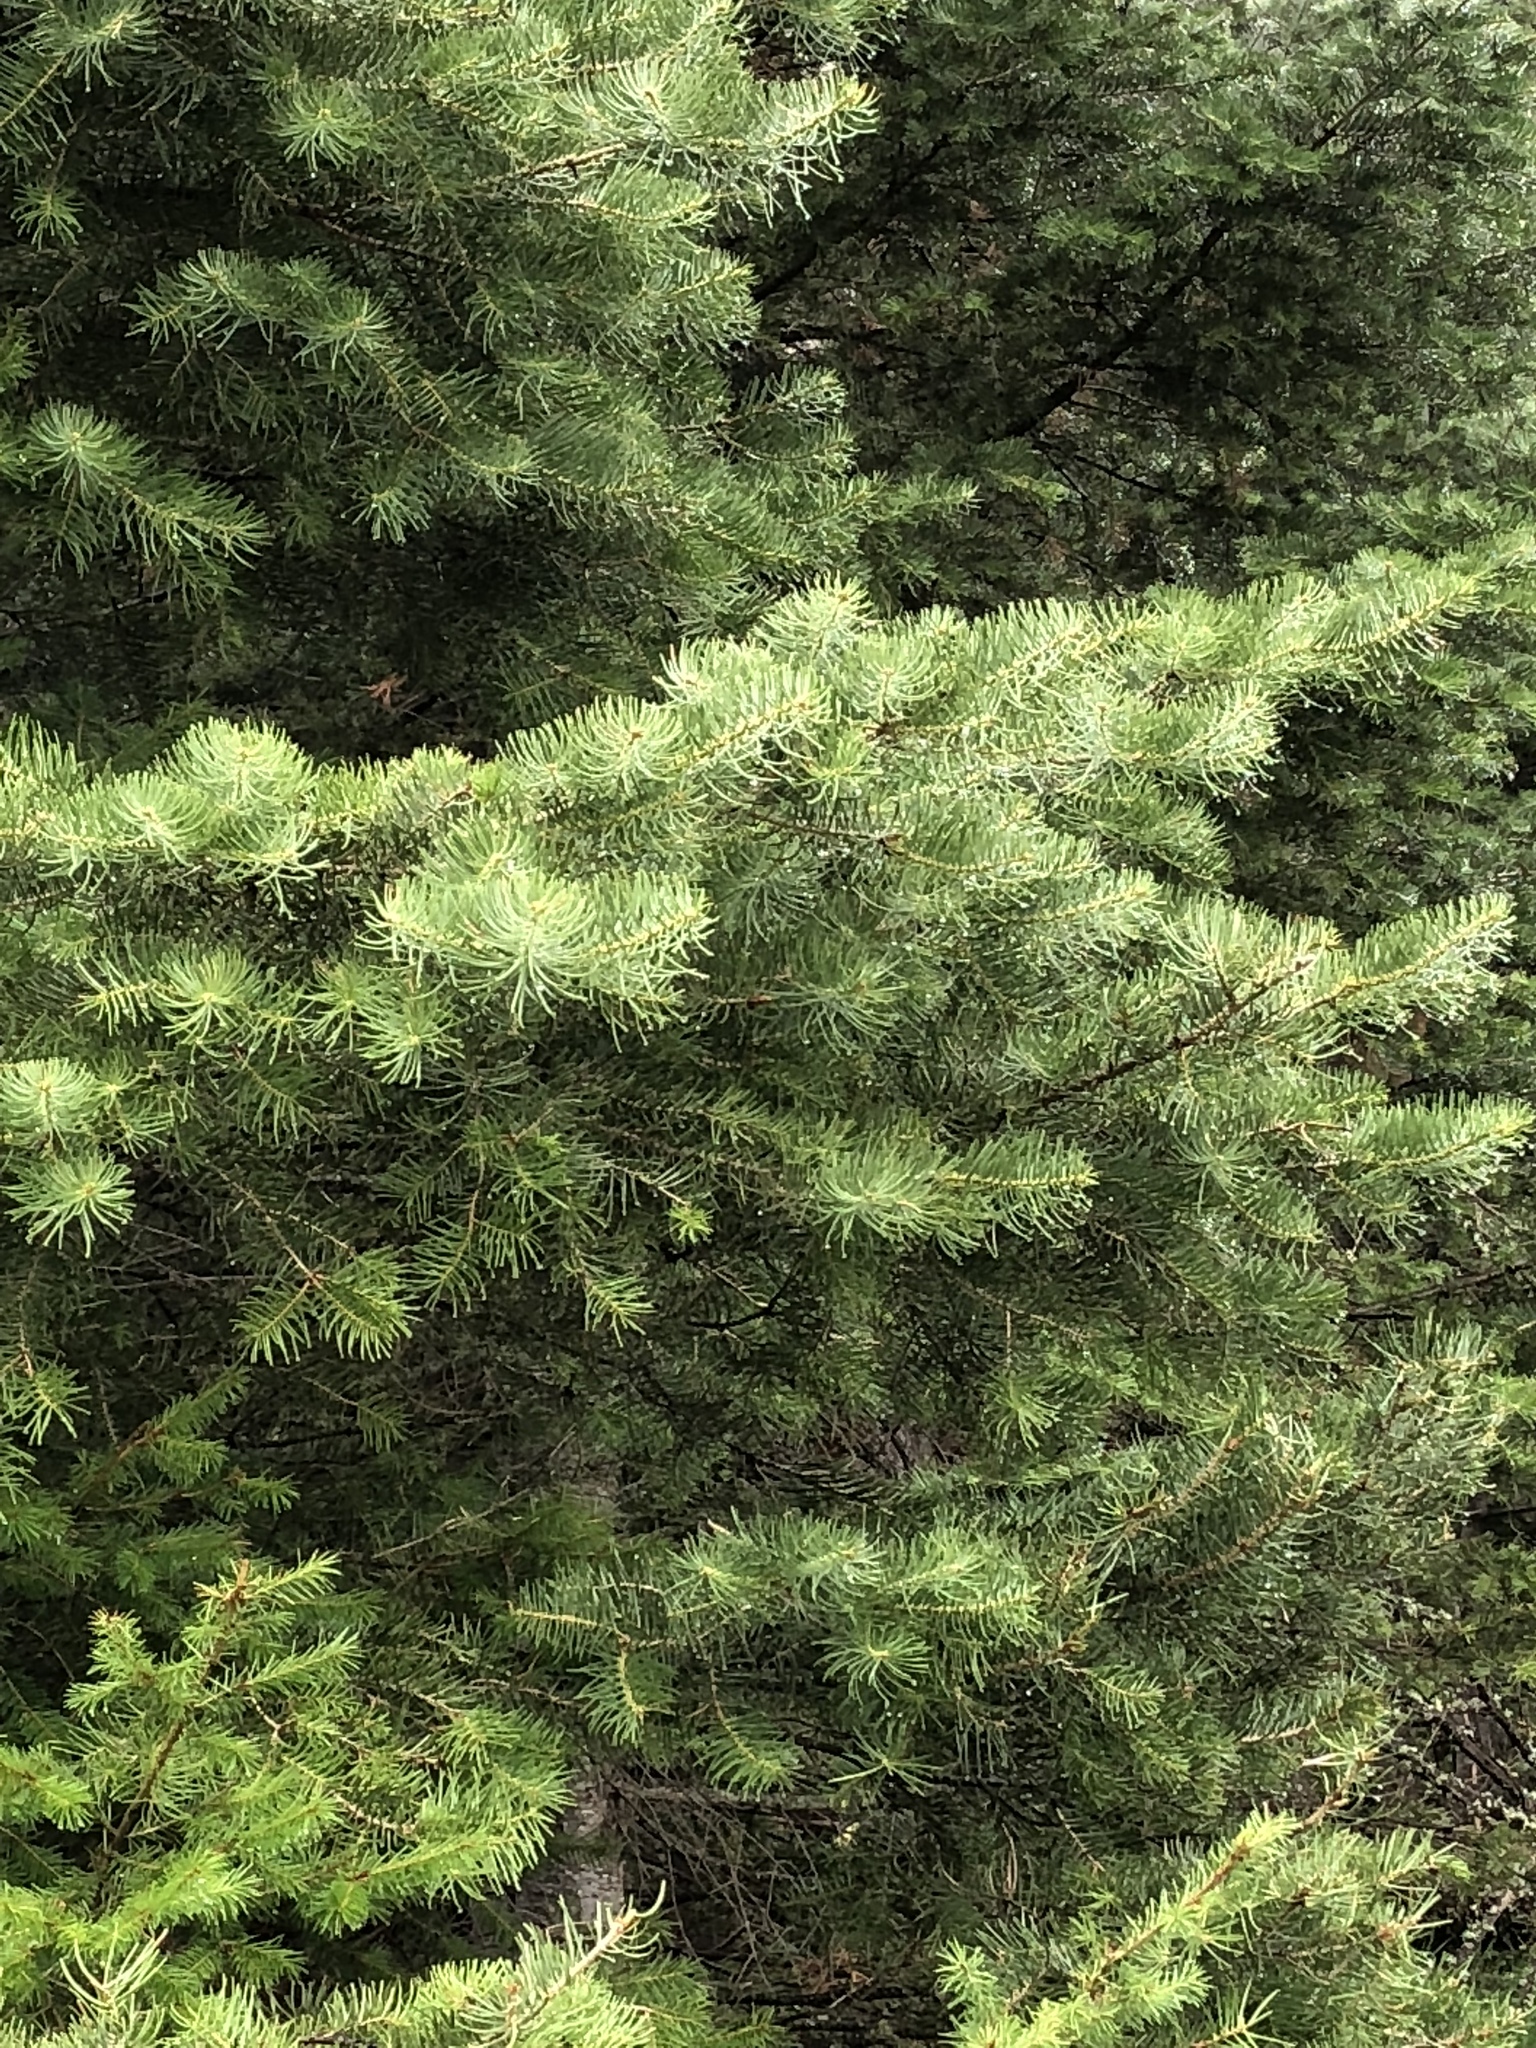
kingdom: Plantae
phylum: Tracheophyta
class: Pinopsida
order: Pinales
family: Pinaceae
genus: Abies
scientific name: Abies concolor
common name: Colorado fir
